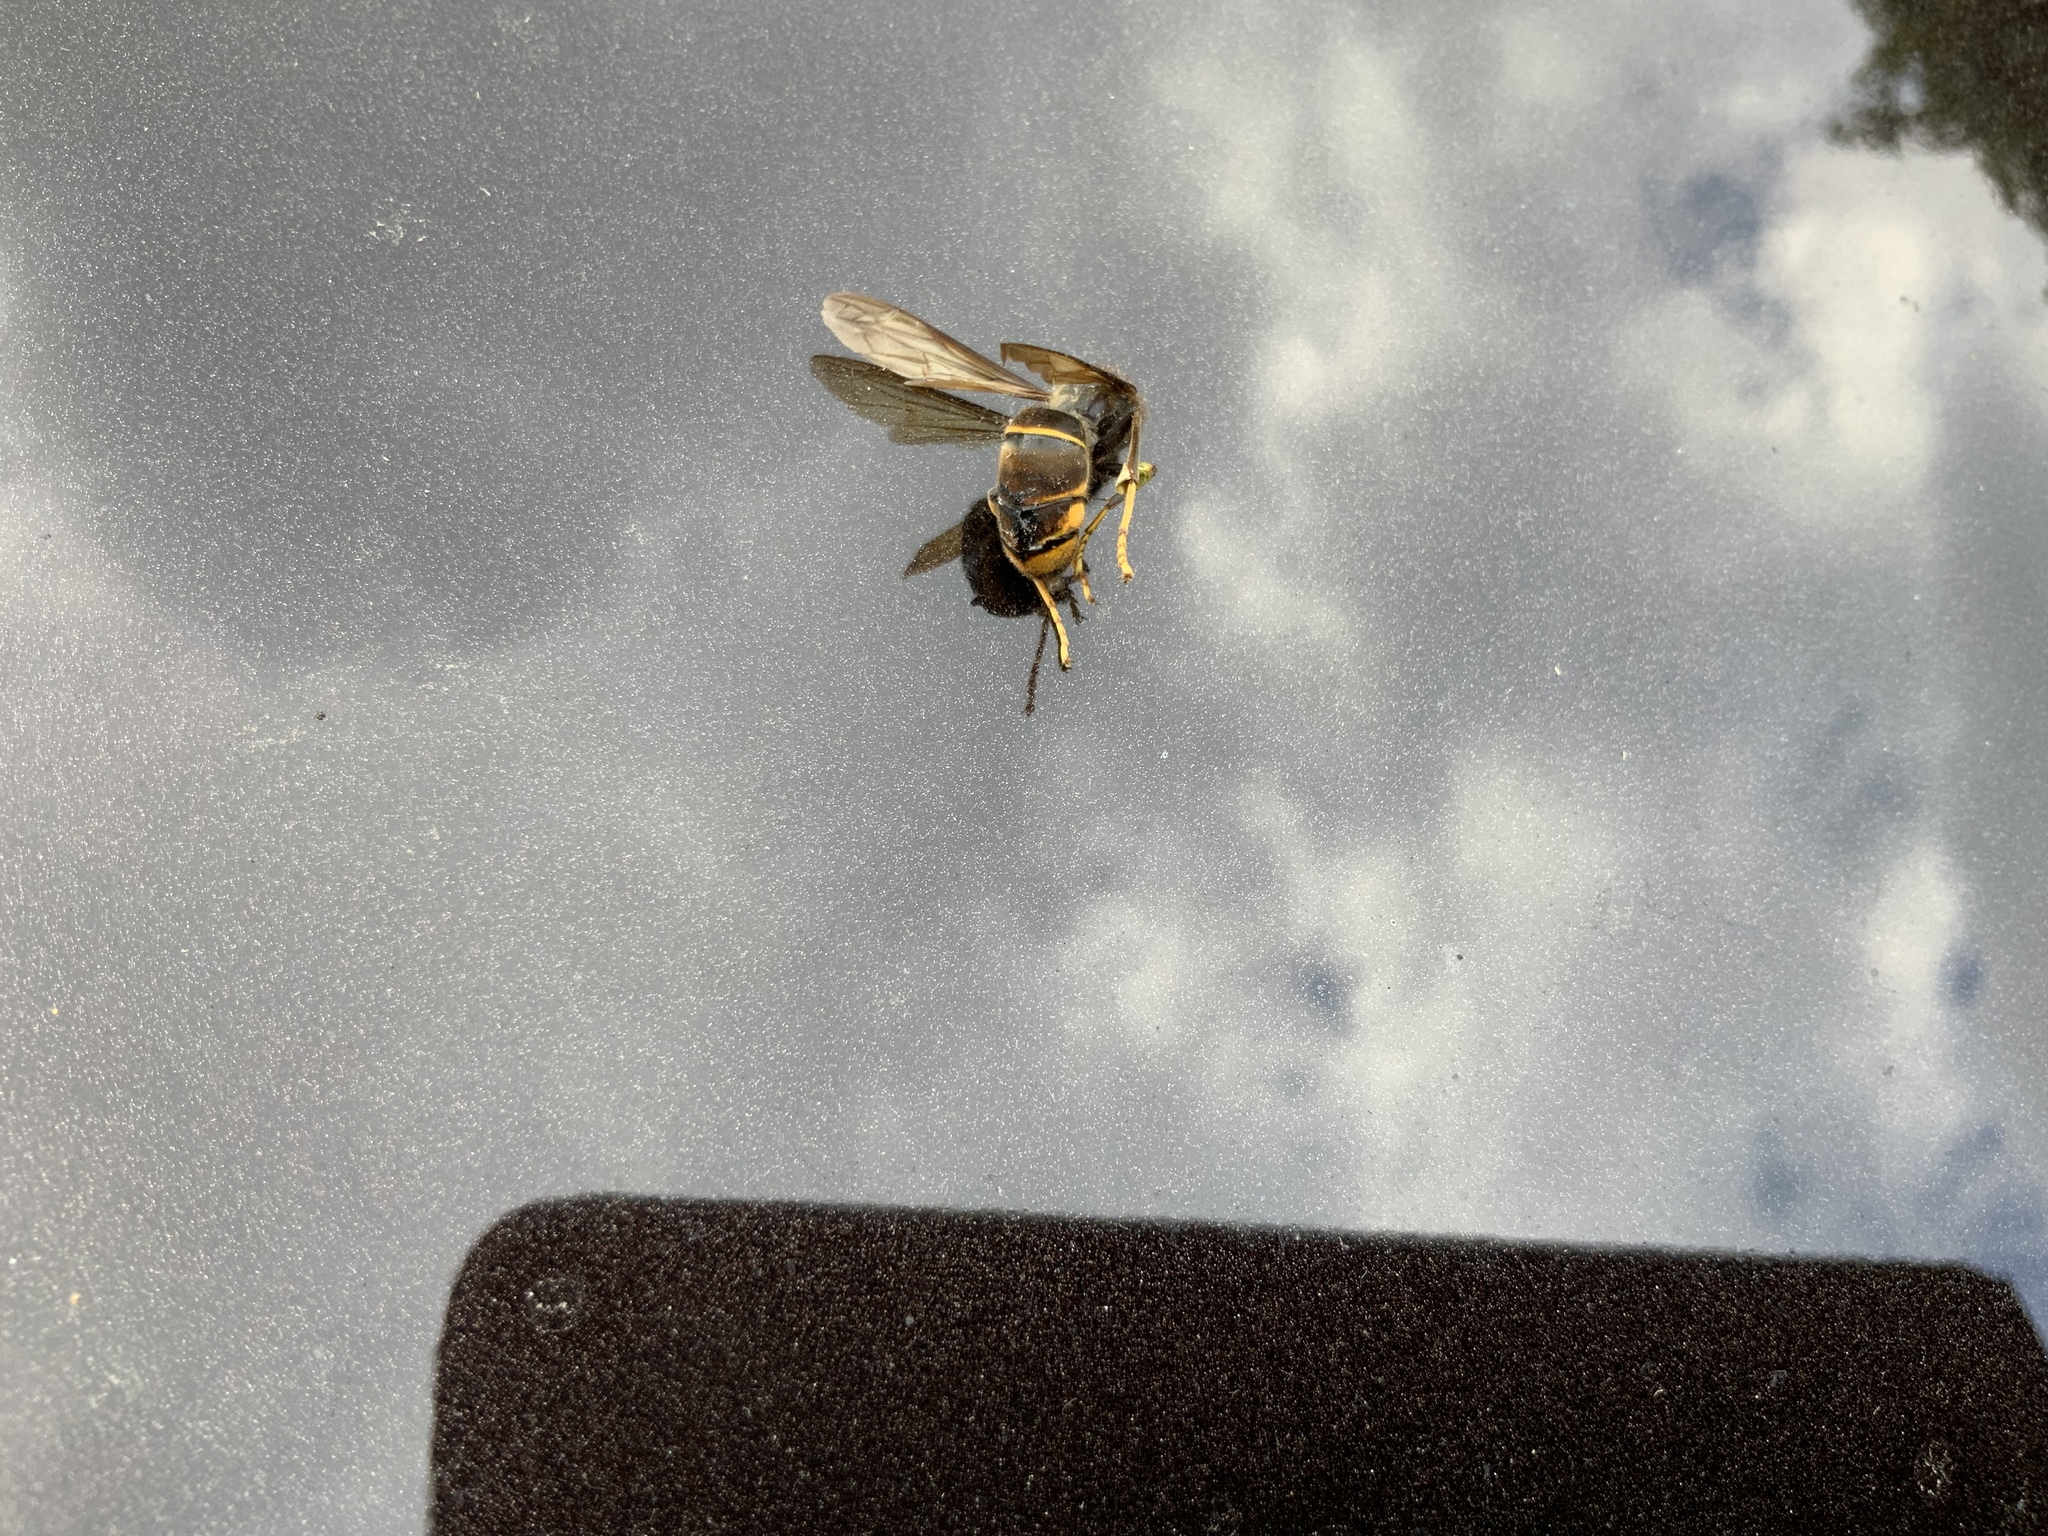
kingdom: Animalia
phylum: Arthropoda
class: Insecta
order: Hymenoptera
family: Vespidae
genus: Vespa
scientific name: Vespa velutina
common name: Asian hornet
